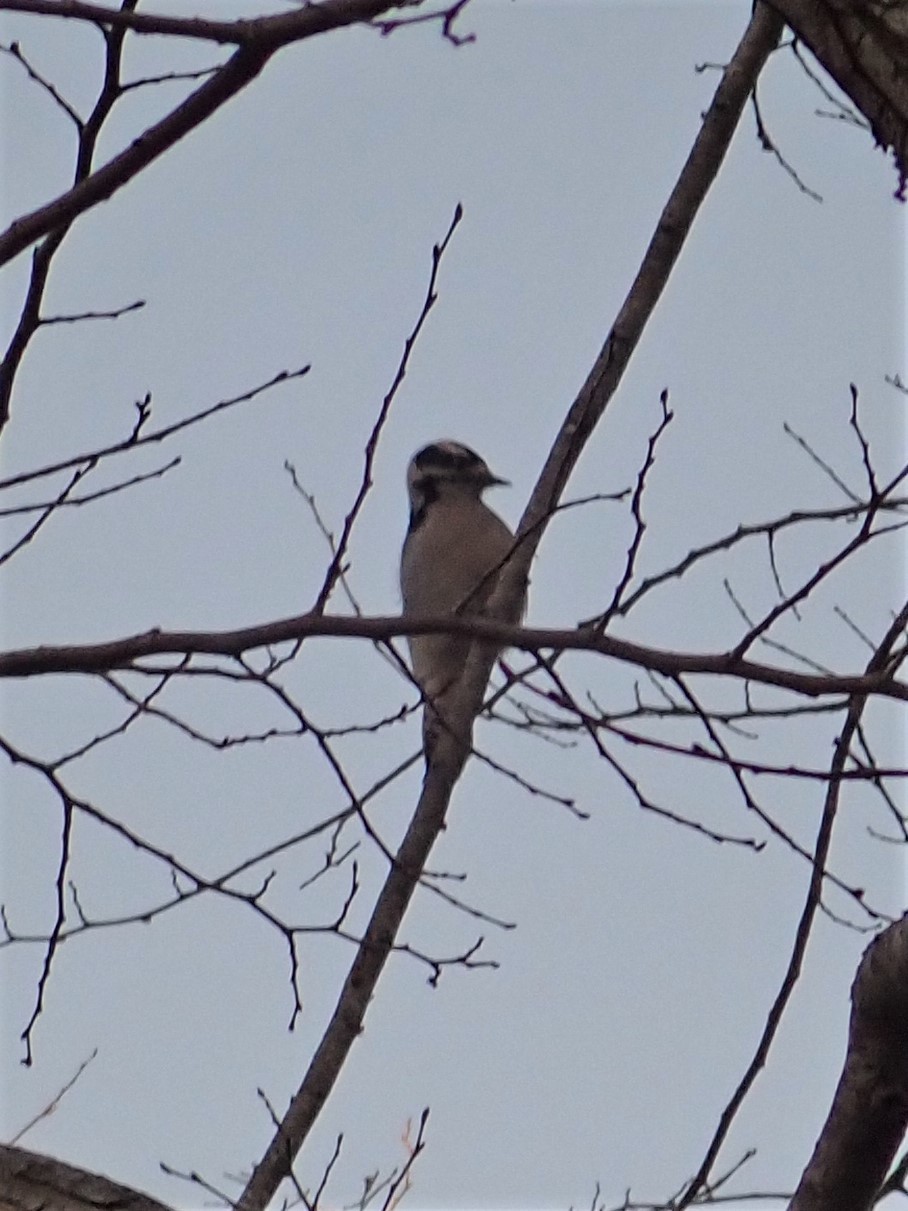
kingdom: Animalia
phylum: Chordata
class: Aves
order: Piciformes
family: Picidae
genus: Dryobates
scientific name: Dryobates pubescens
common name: Downy woodpecker
